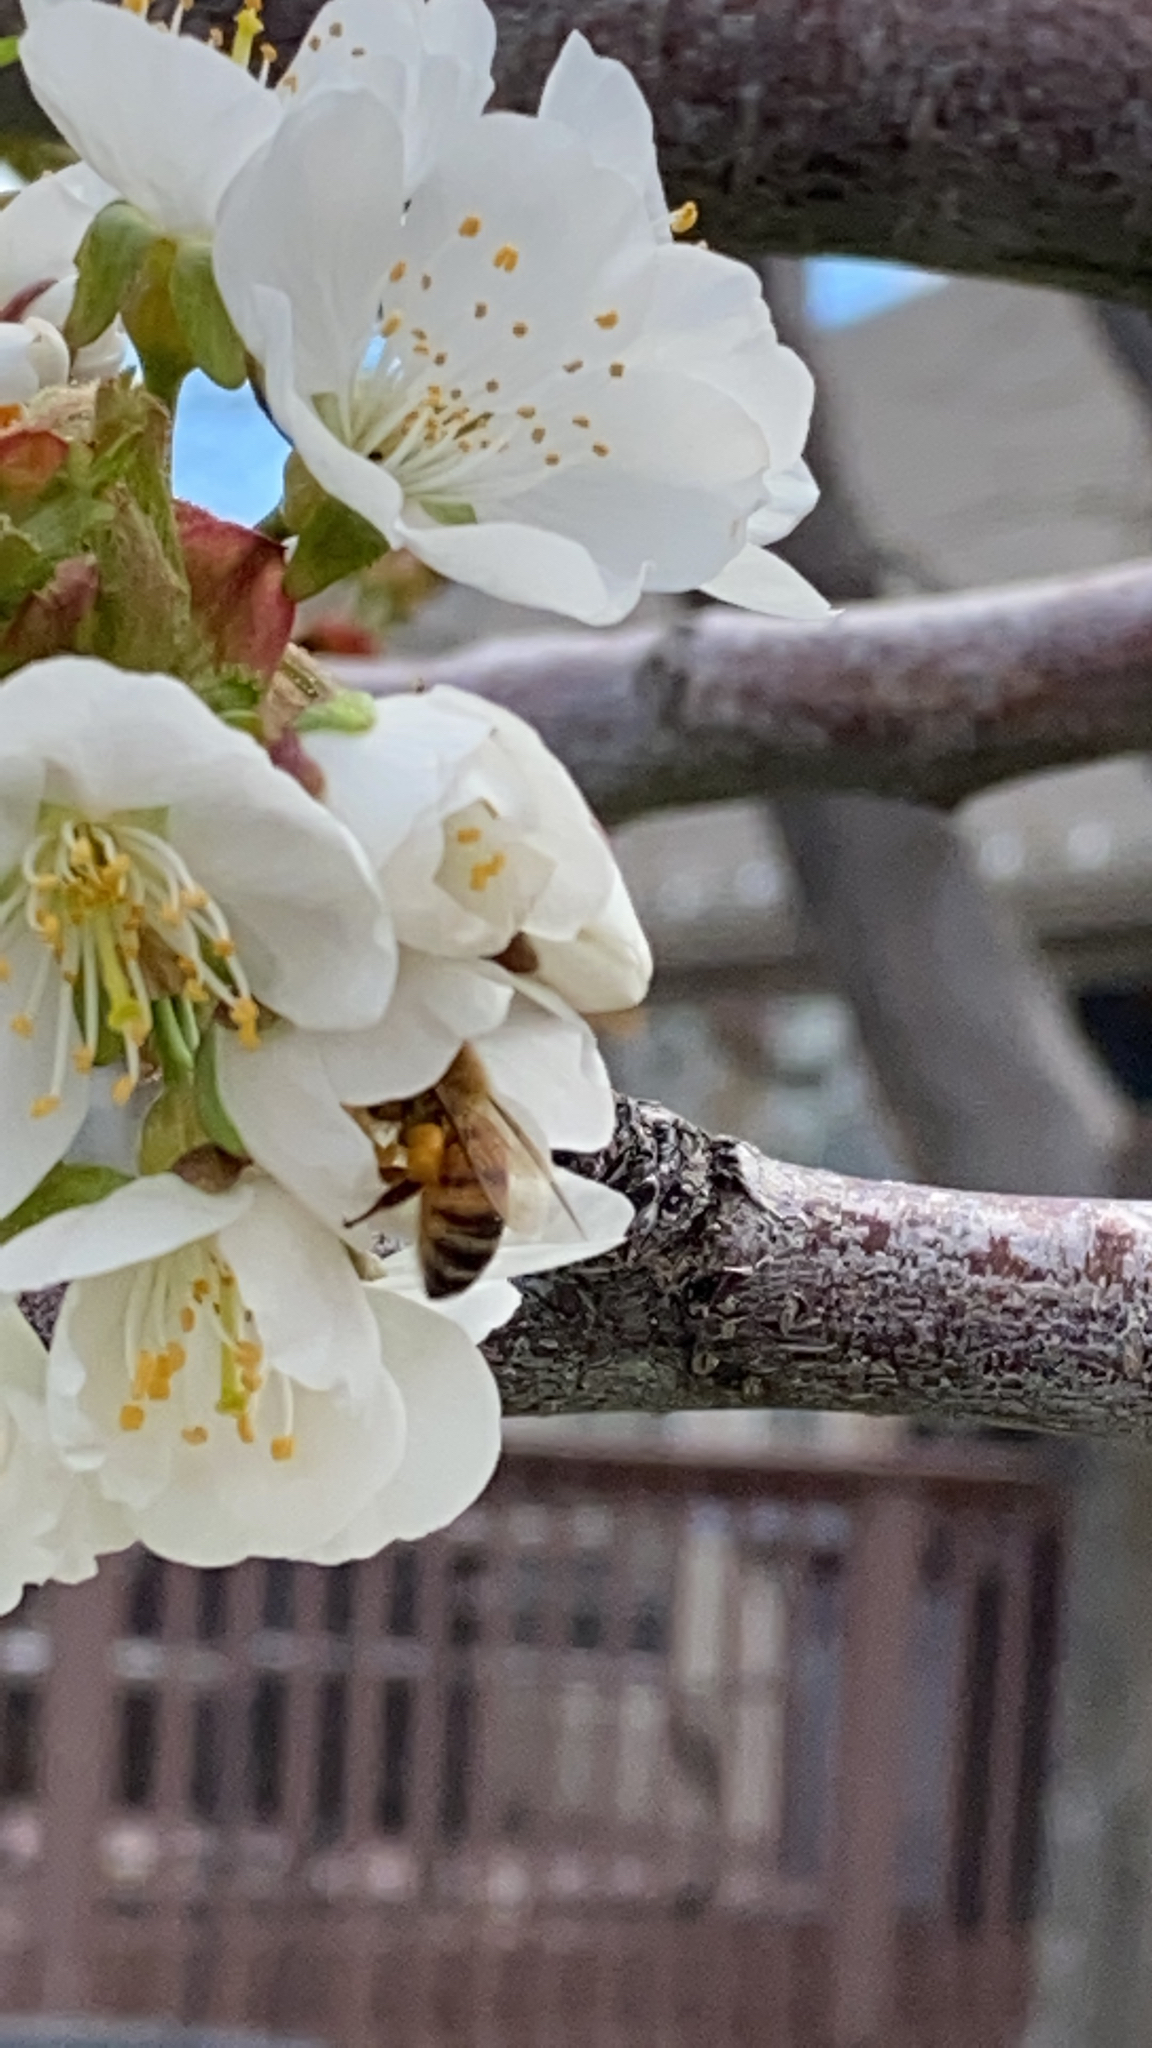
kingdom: Animalia
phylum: Arthropoda
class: Insecta
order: Hymenoptera
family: Apidae
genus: Apis
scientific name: Apis mellifera
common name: Honey bee
